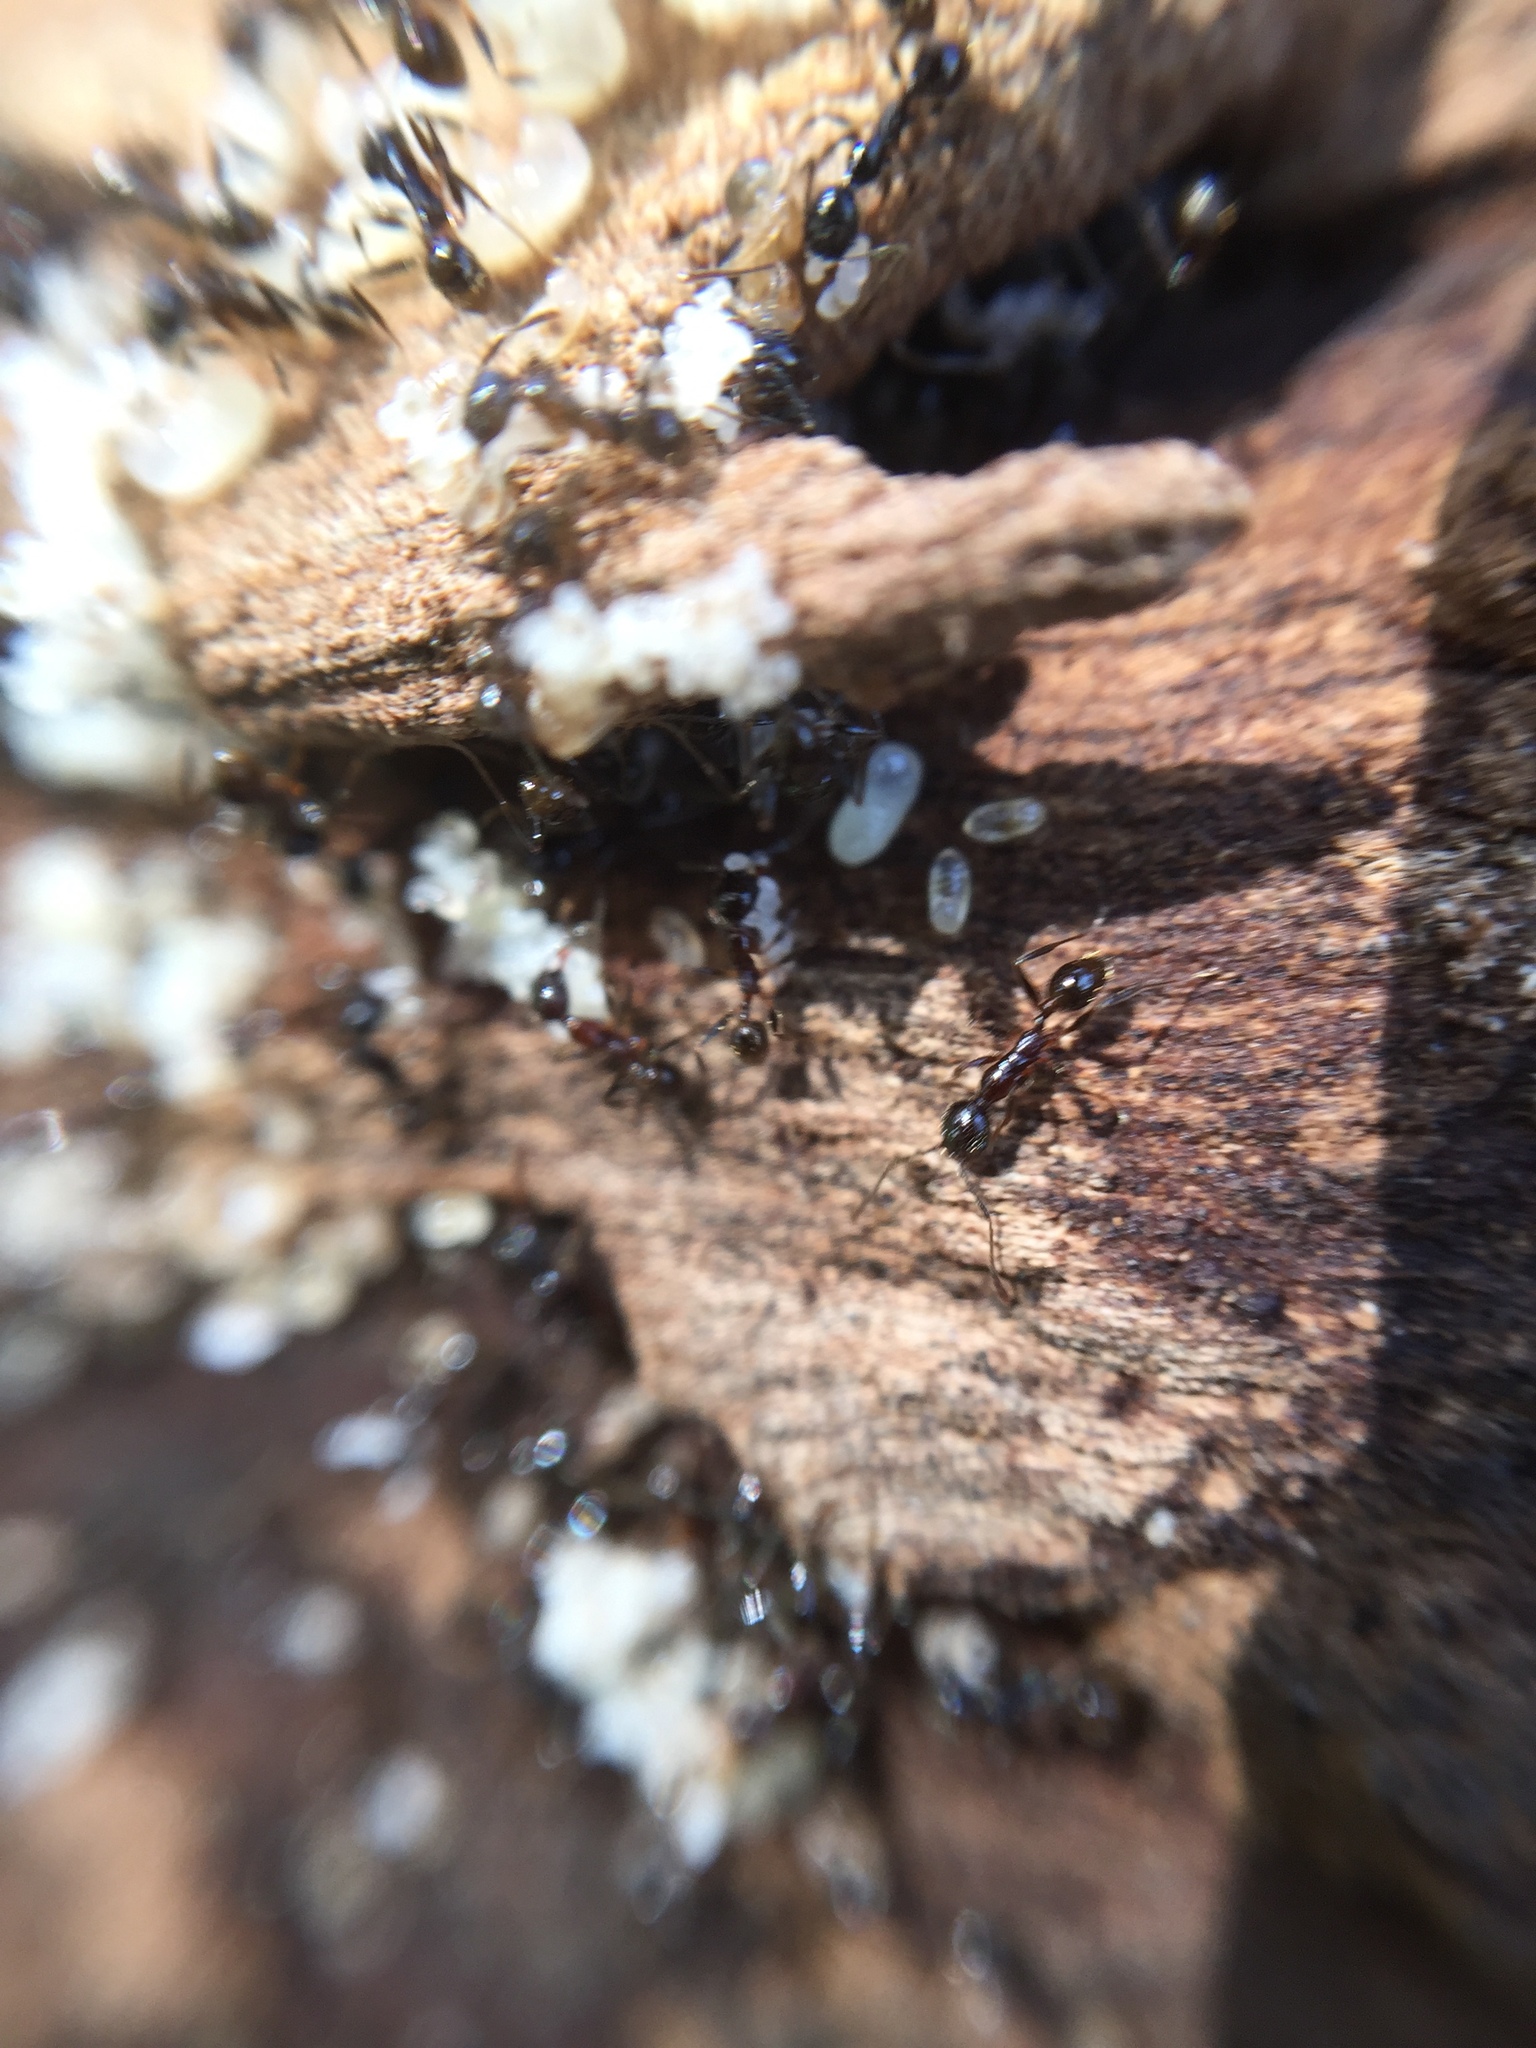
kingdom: Animalia
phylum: Arthropoda
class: Insecta
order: Hymenoptera
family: Formicidae
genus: Pheidole
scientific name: Pheidole
